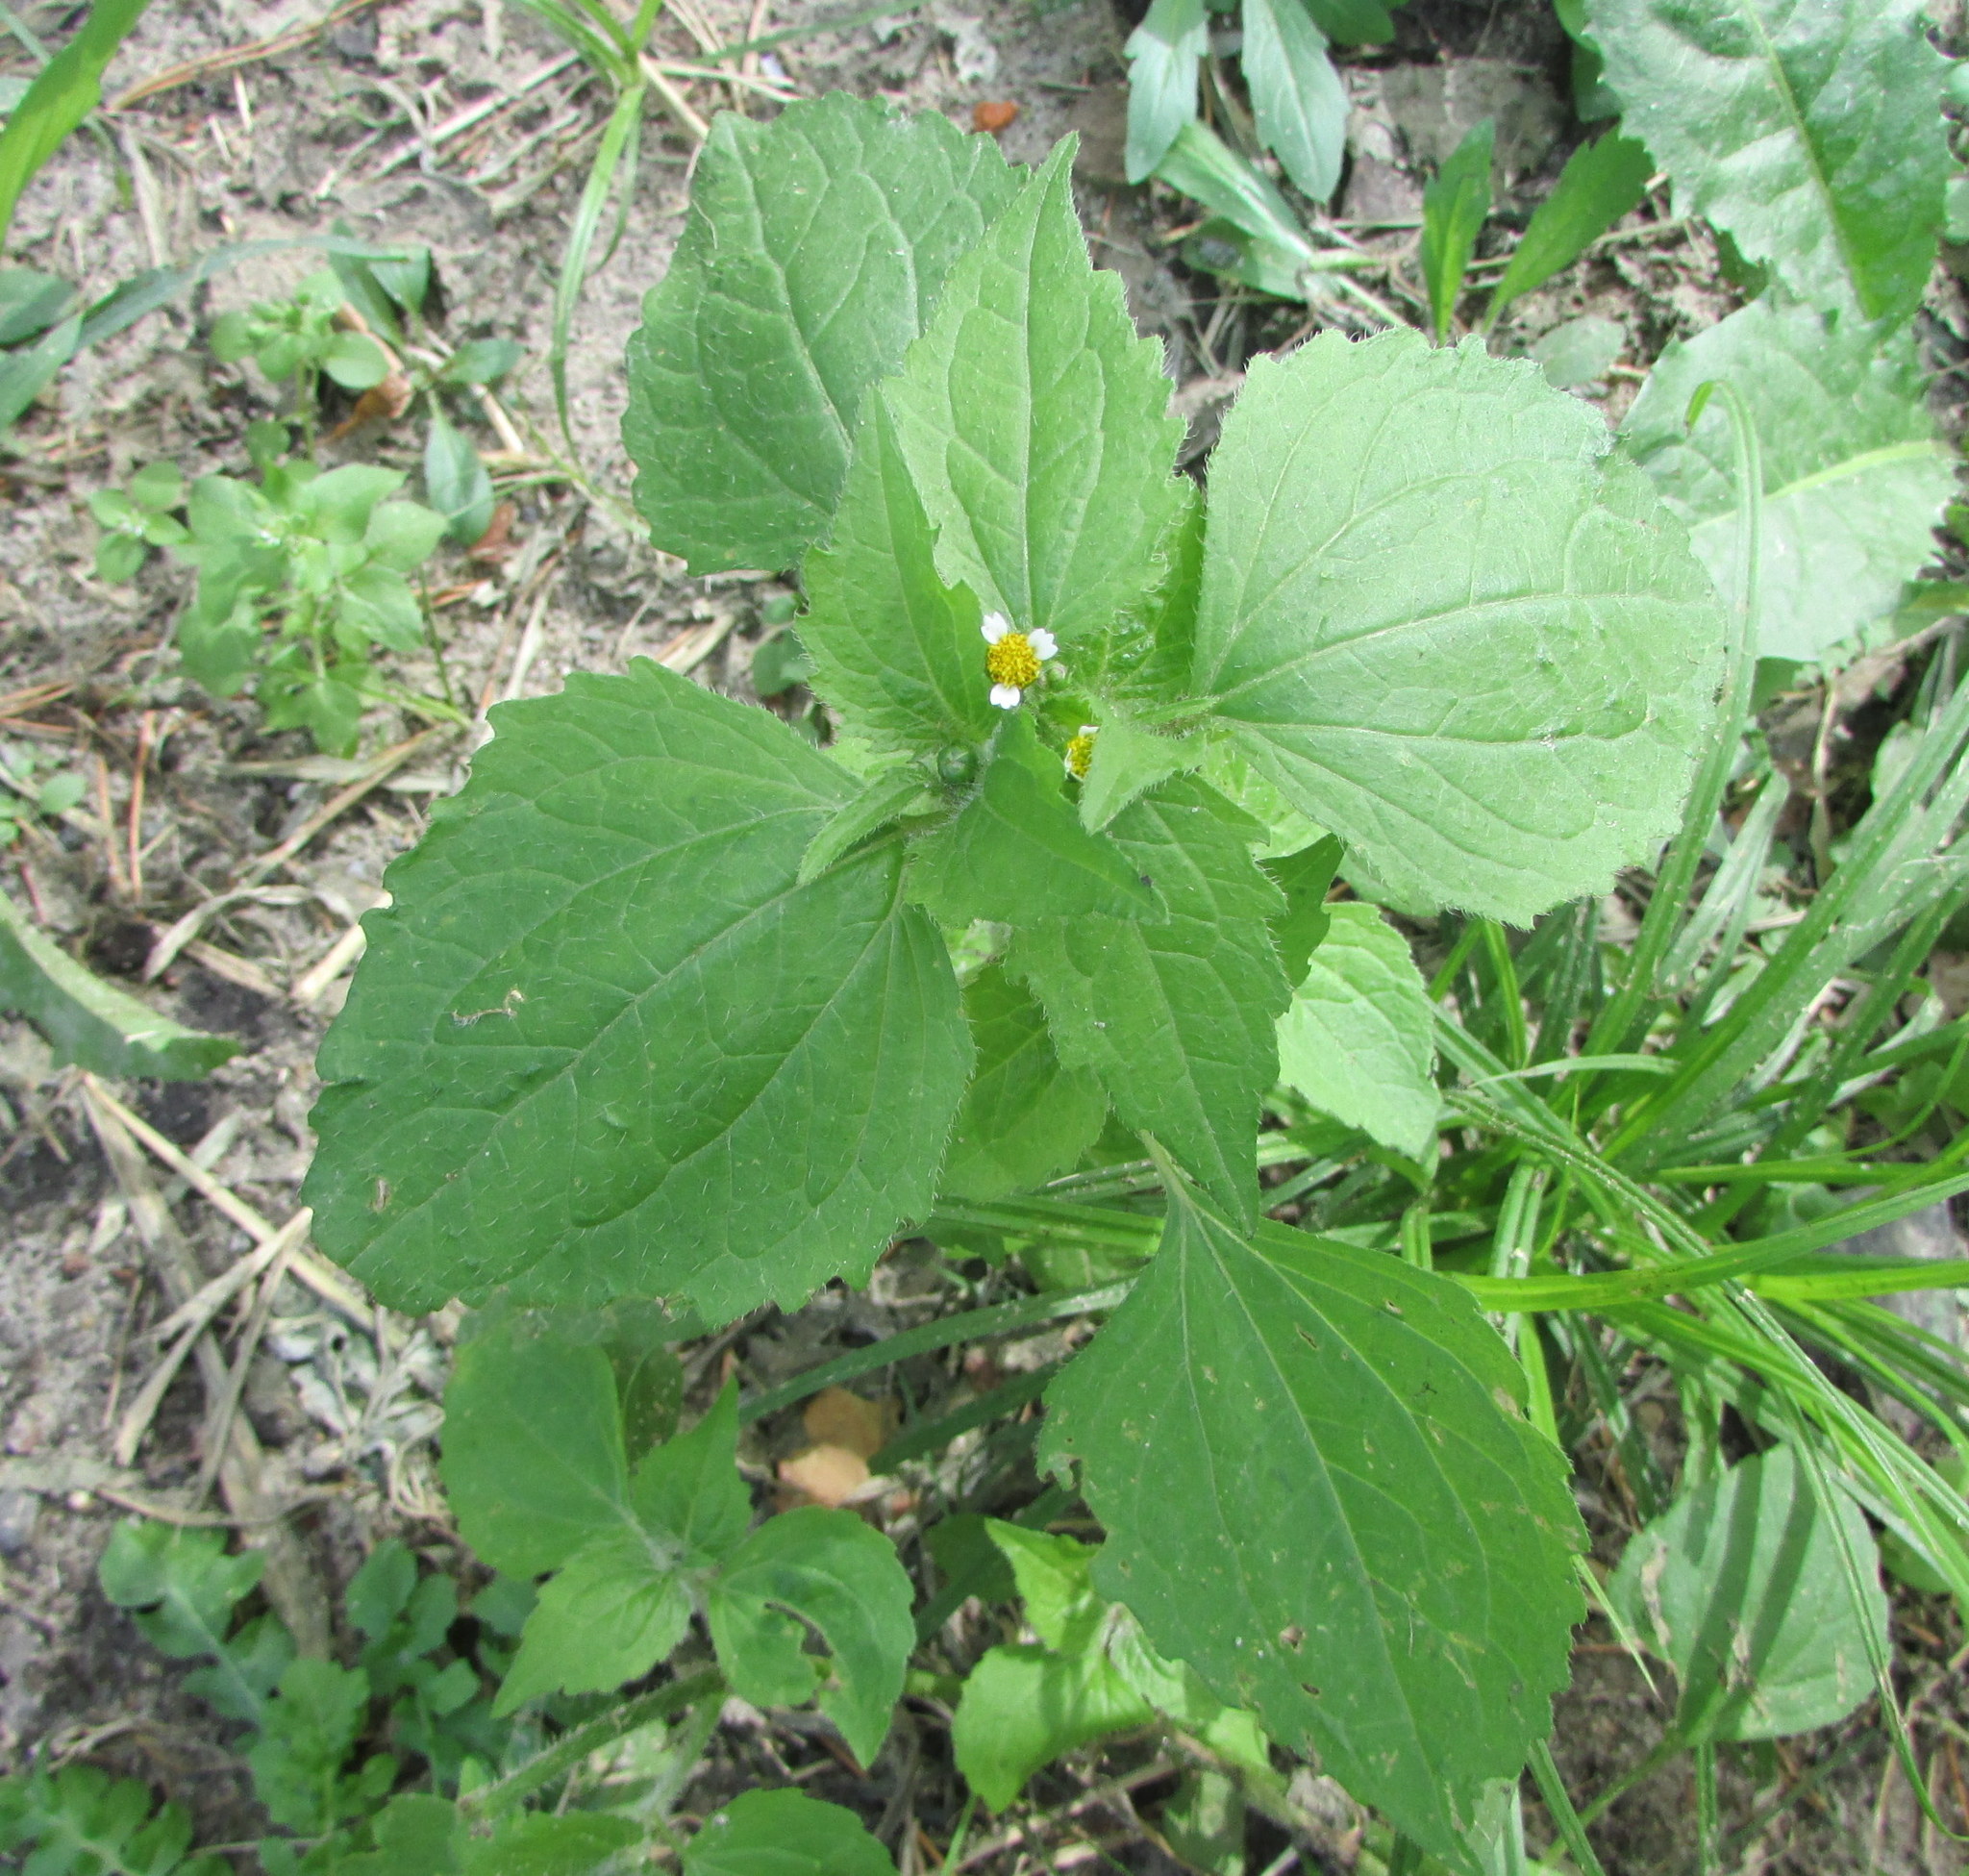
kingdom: Plantae
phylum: Tracheophyta
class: Magnoliopsida
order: Asterales
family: Asteraceae
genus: Galinsoga
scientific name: Galinsoga quadriradiata
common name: Shaggy soldier
